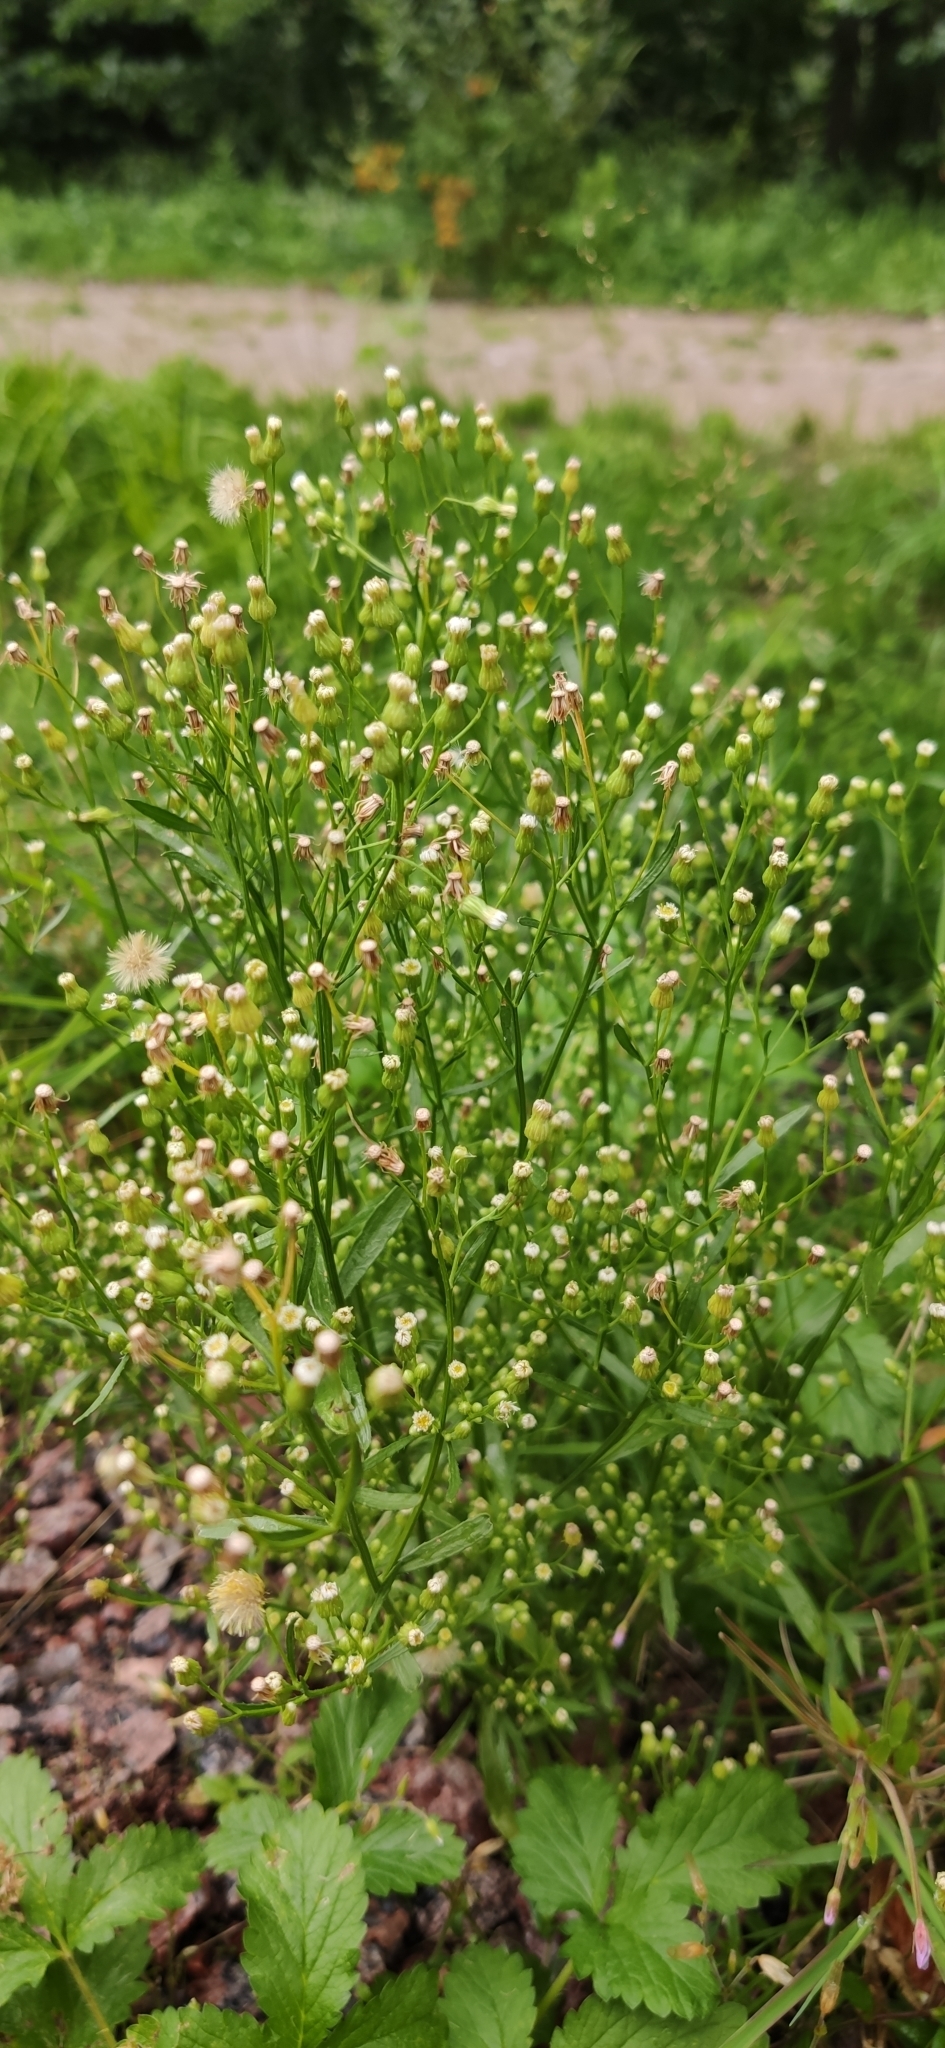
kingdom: Plantae
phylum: Tracheophyta
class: Magnoliopsida
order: Asterales
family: Asteraceae
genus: Erigeron
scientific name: Erigeron canadensis
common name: Canadian fleabane
